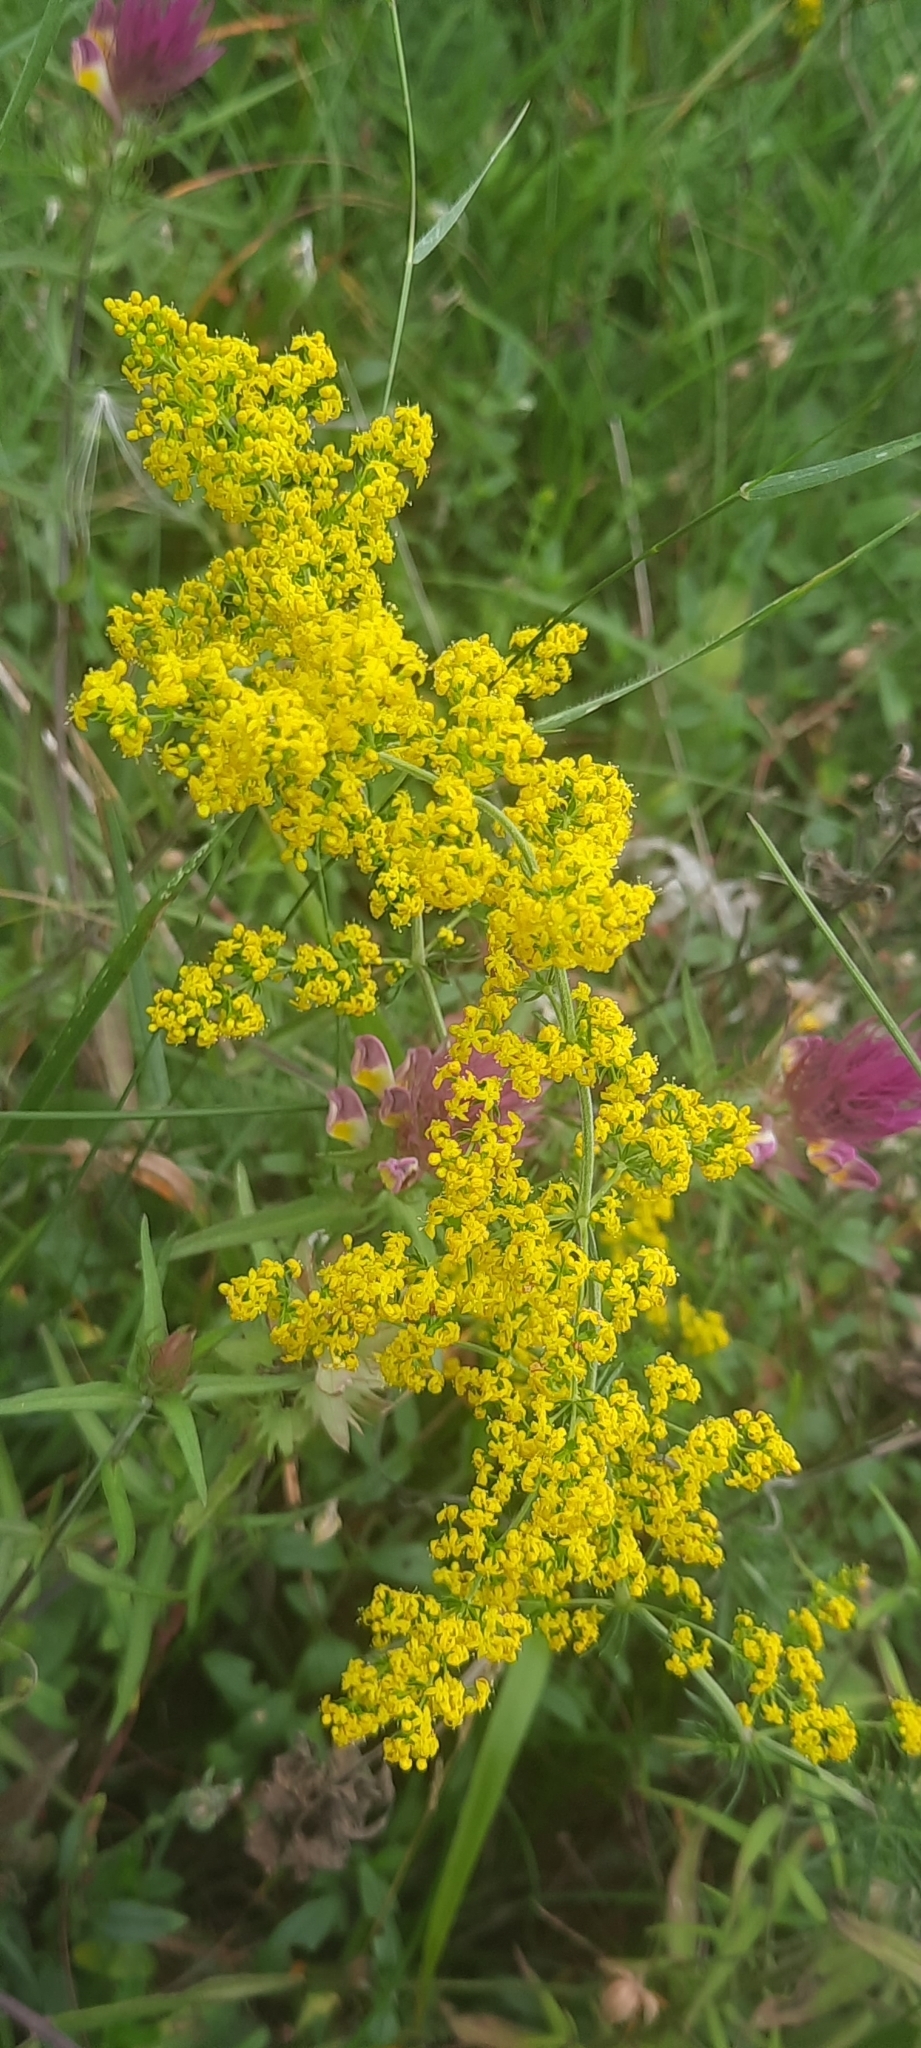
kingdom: Plantae
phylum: Tracheophyta
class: Magnoliopsida
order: Gentianales
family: Rubiaceae
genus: Galium
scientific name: Galium verum
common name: Lady's bedstraw
